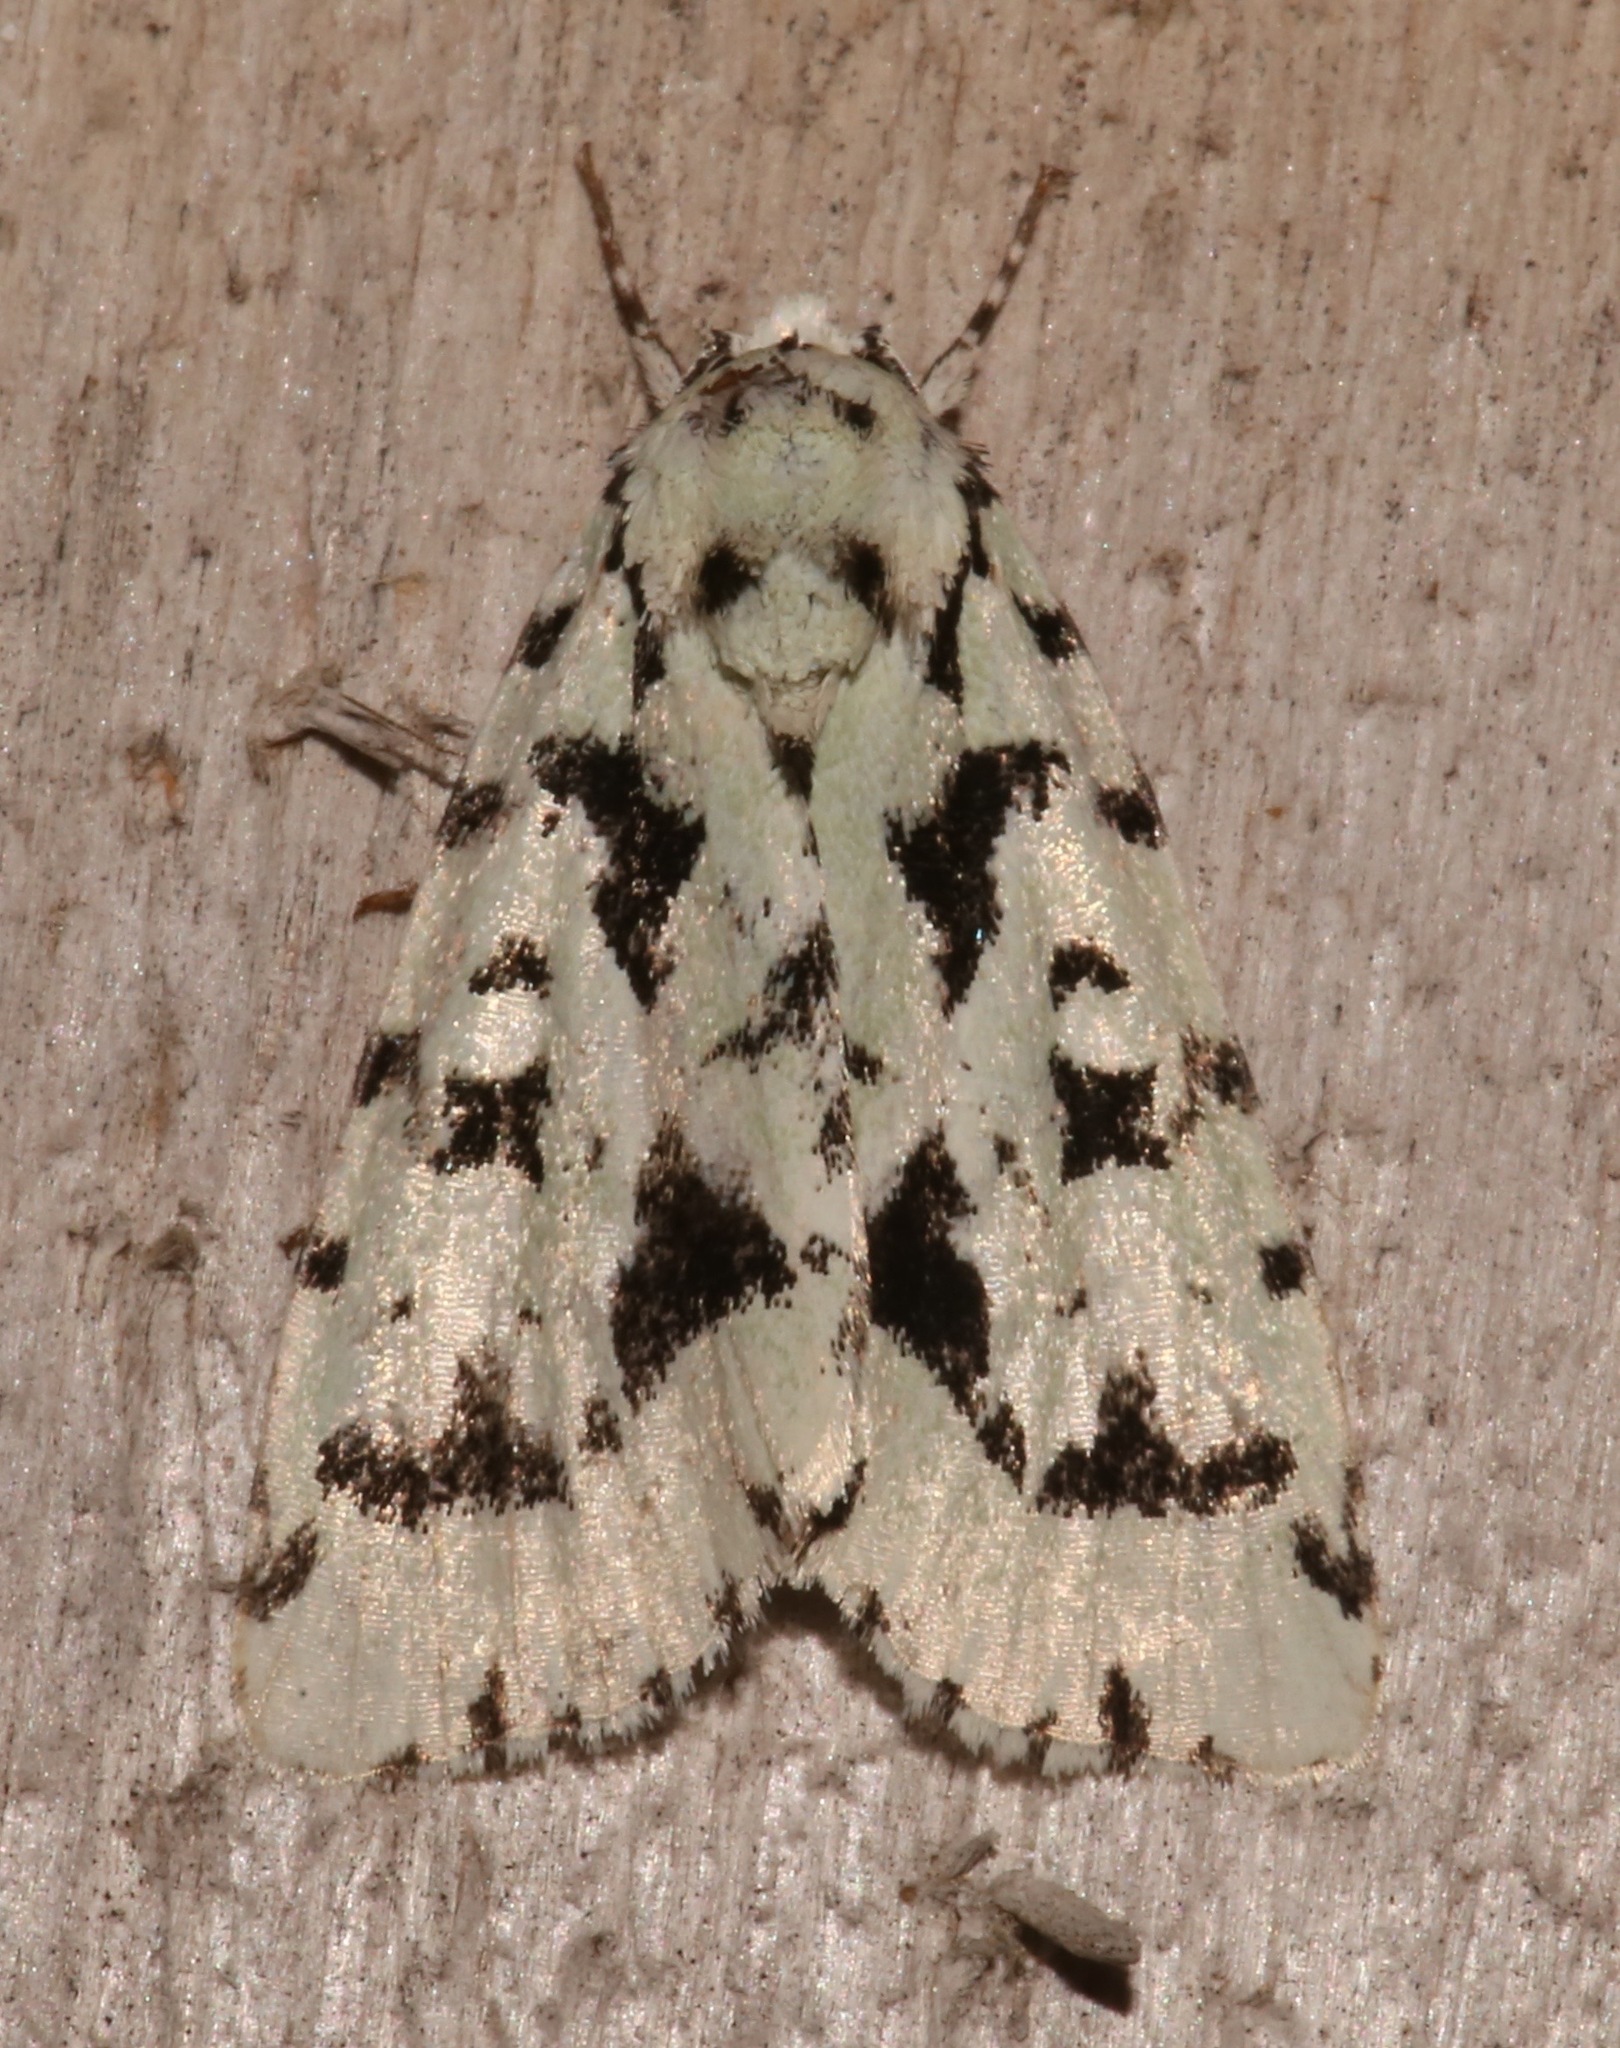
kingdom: Animalia
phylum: Arthropoda
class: Insecta
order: Lepidoptera
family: Noctuidae
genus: Acronicta
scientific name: Acronicta fallax
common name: Green marvel
